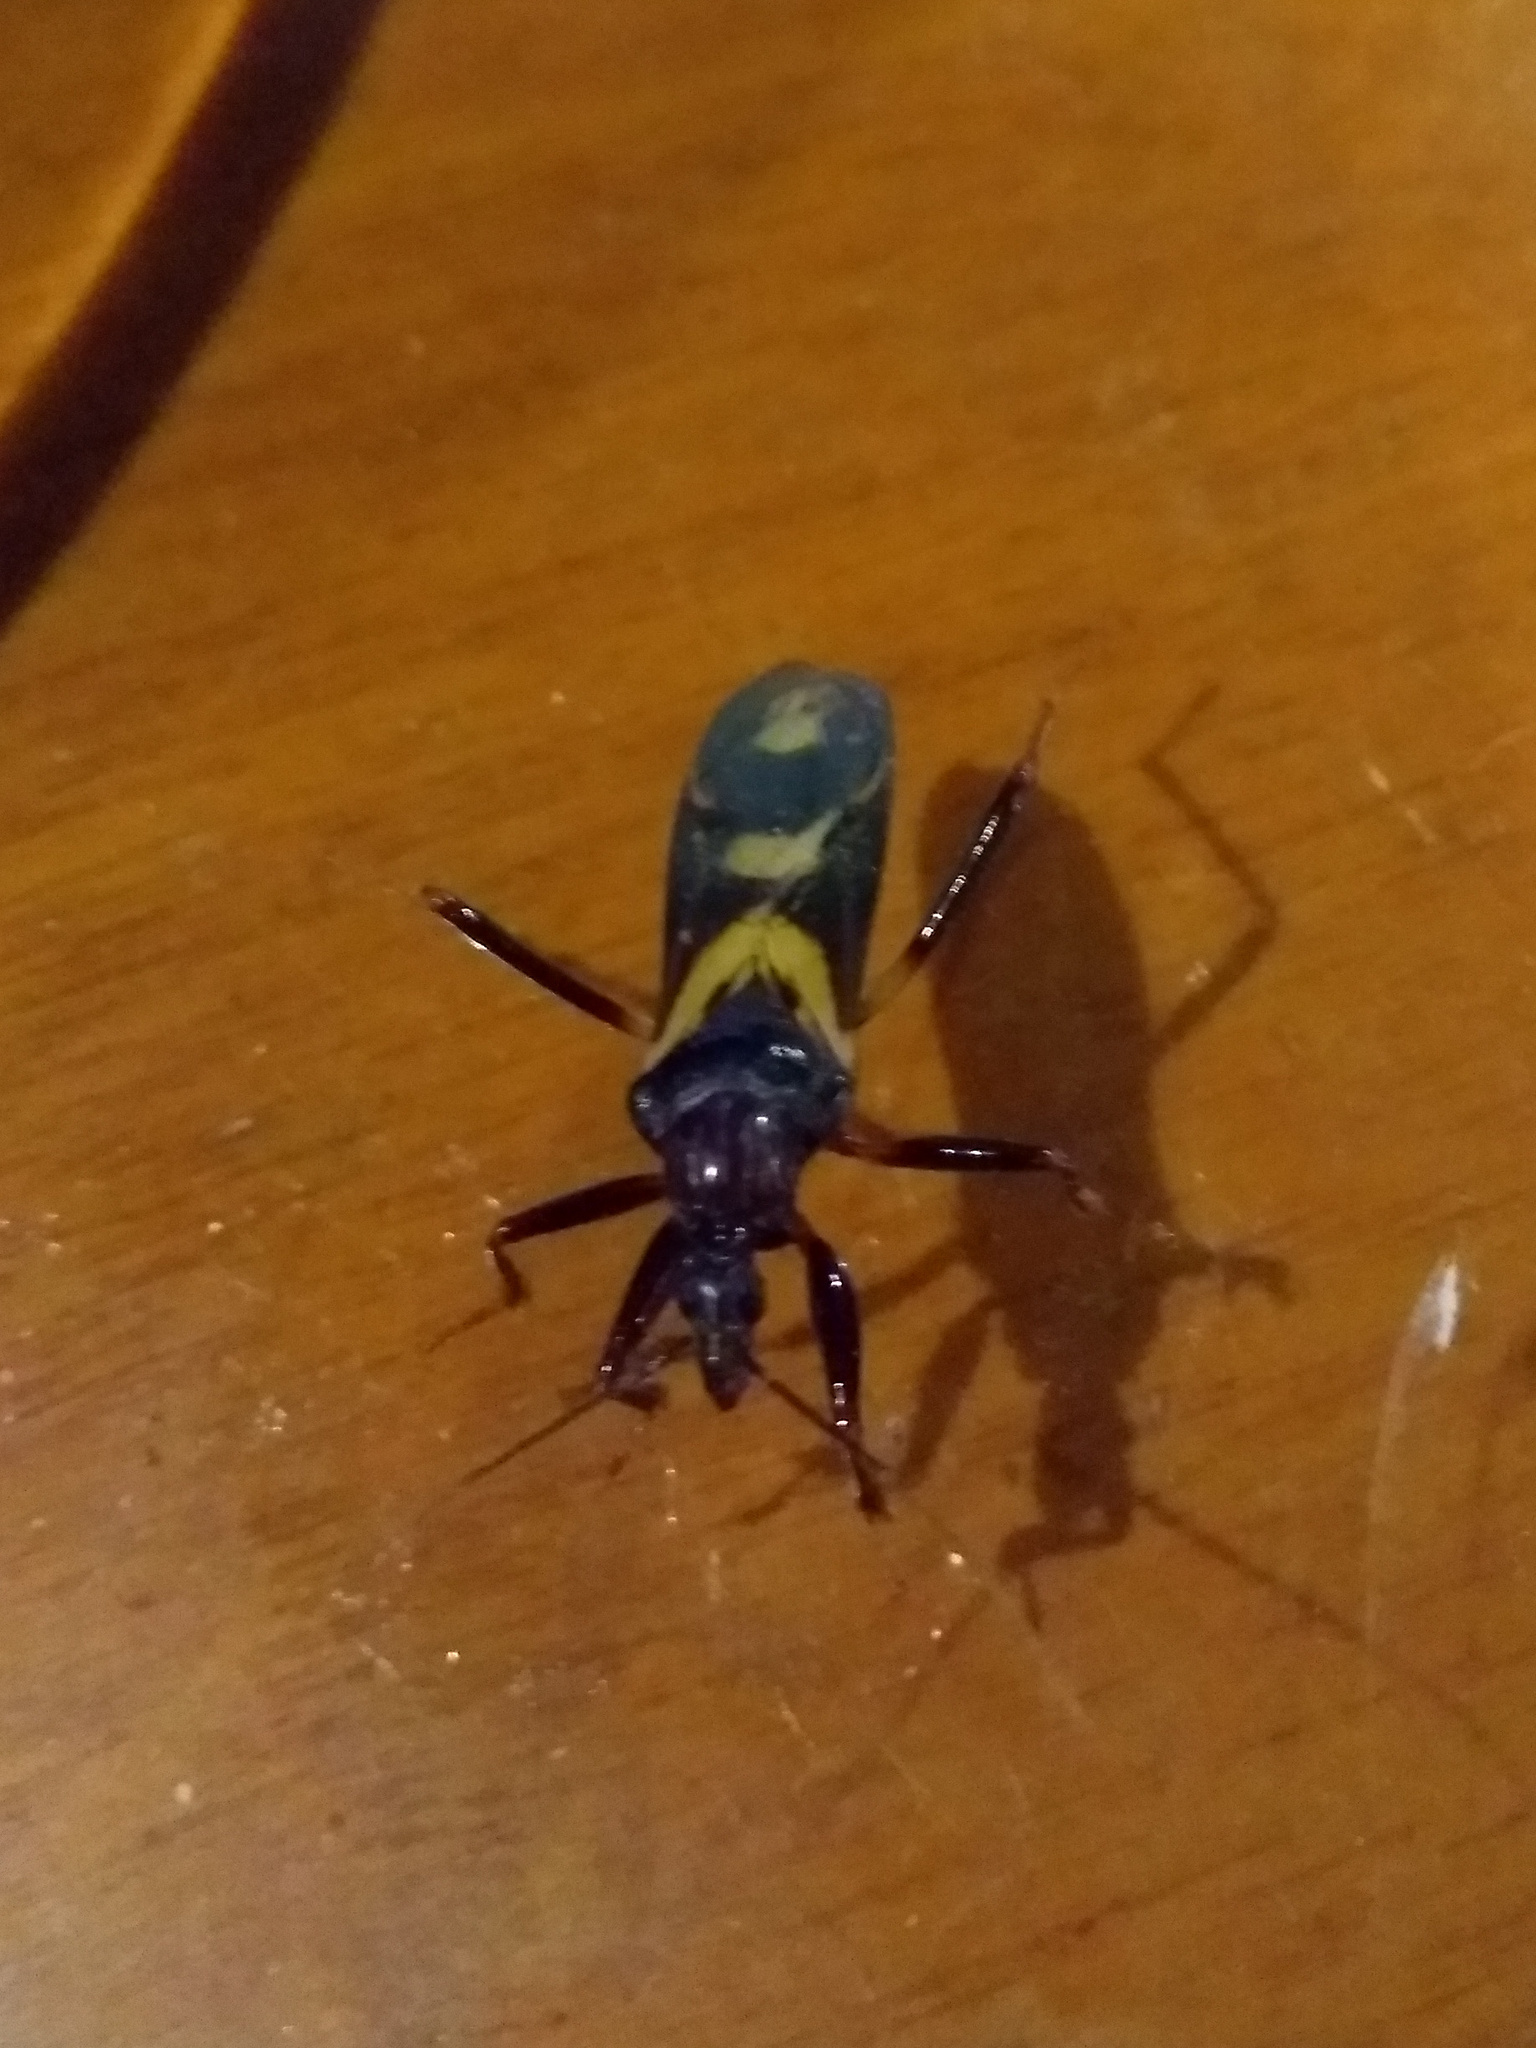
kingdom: Animalia
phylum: Arthropoda
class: Insecta
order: Hemiptera
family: Reduviidae
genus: Rasahus
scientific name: Rasahus brasiliensis
